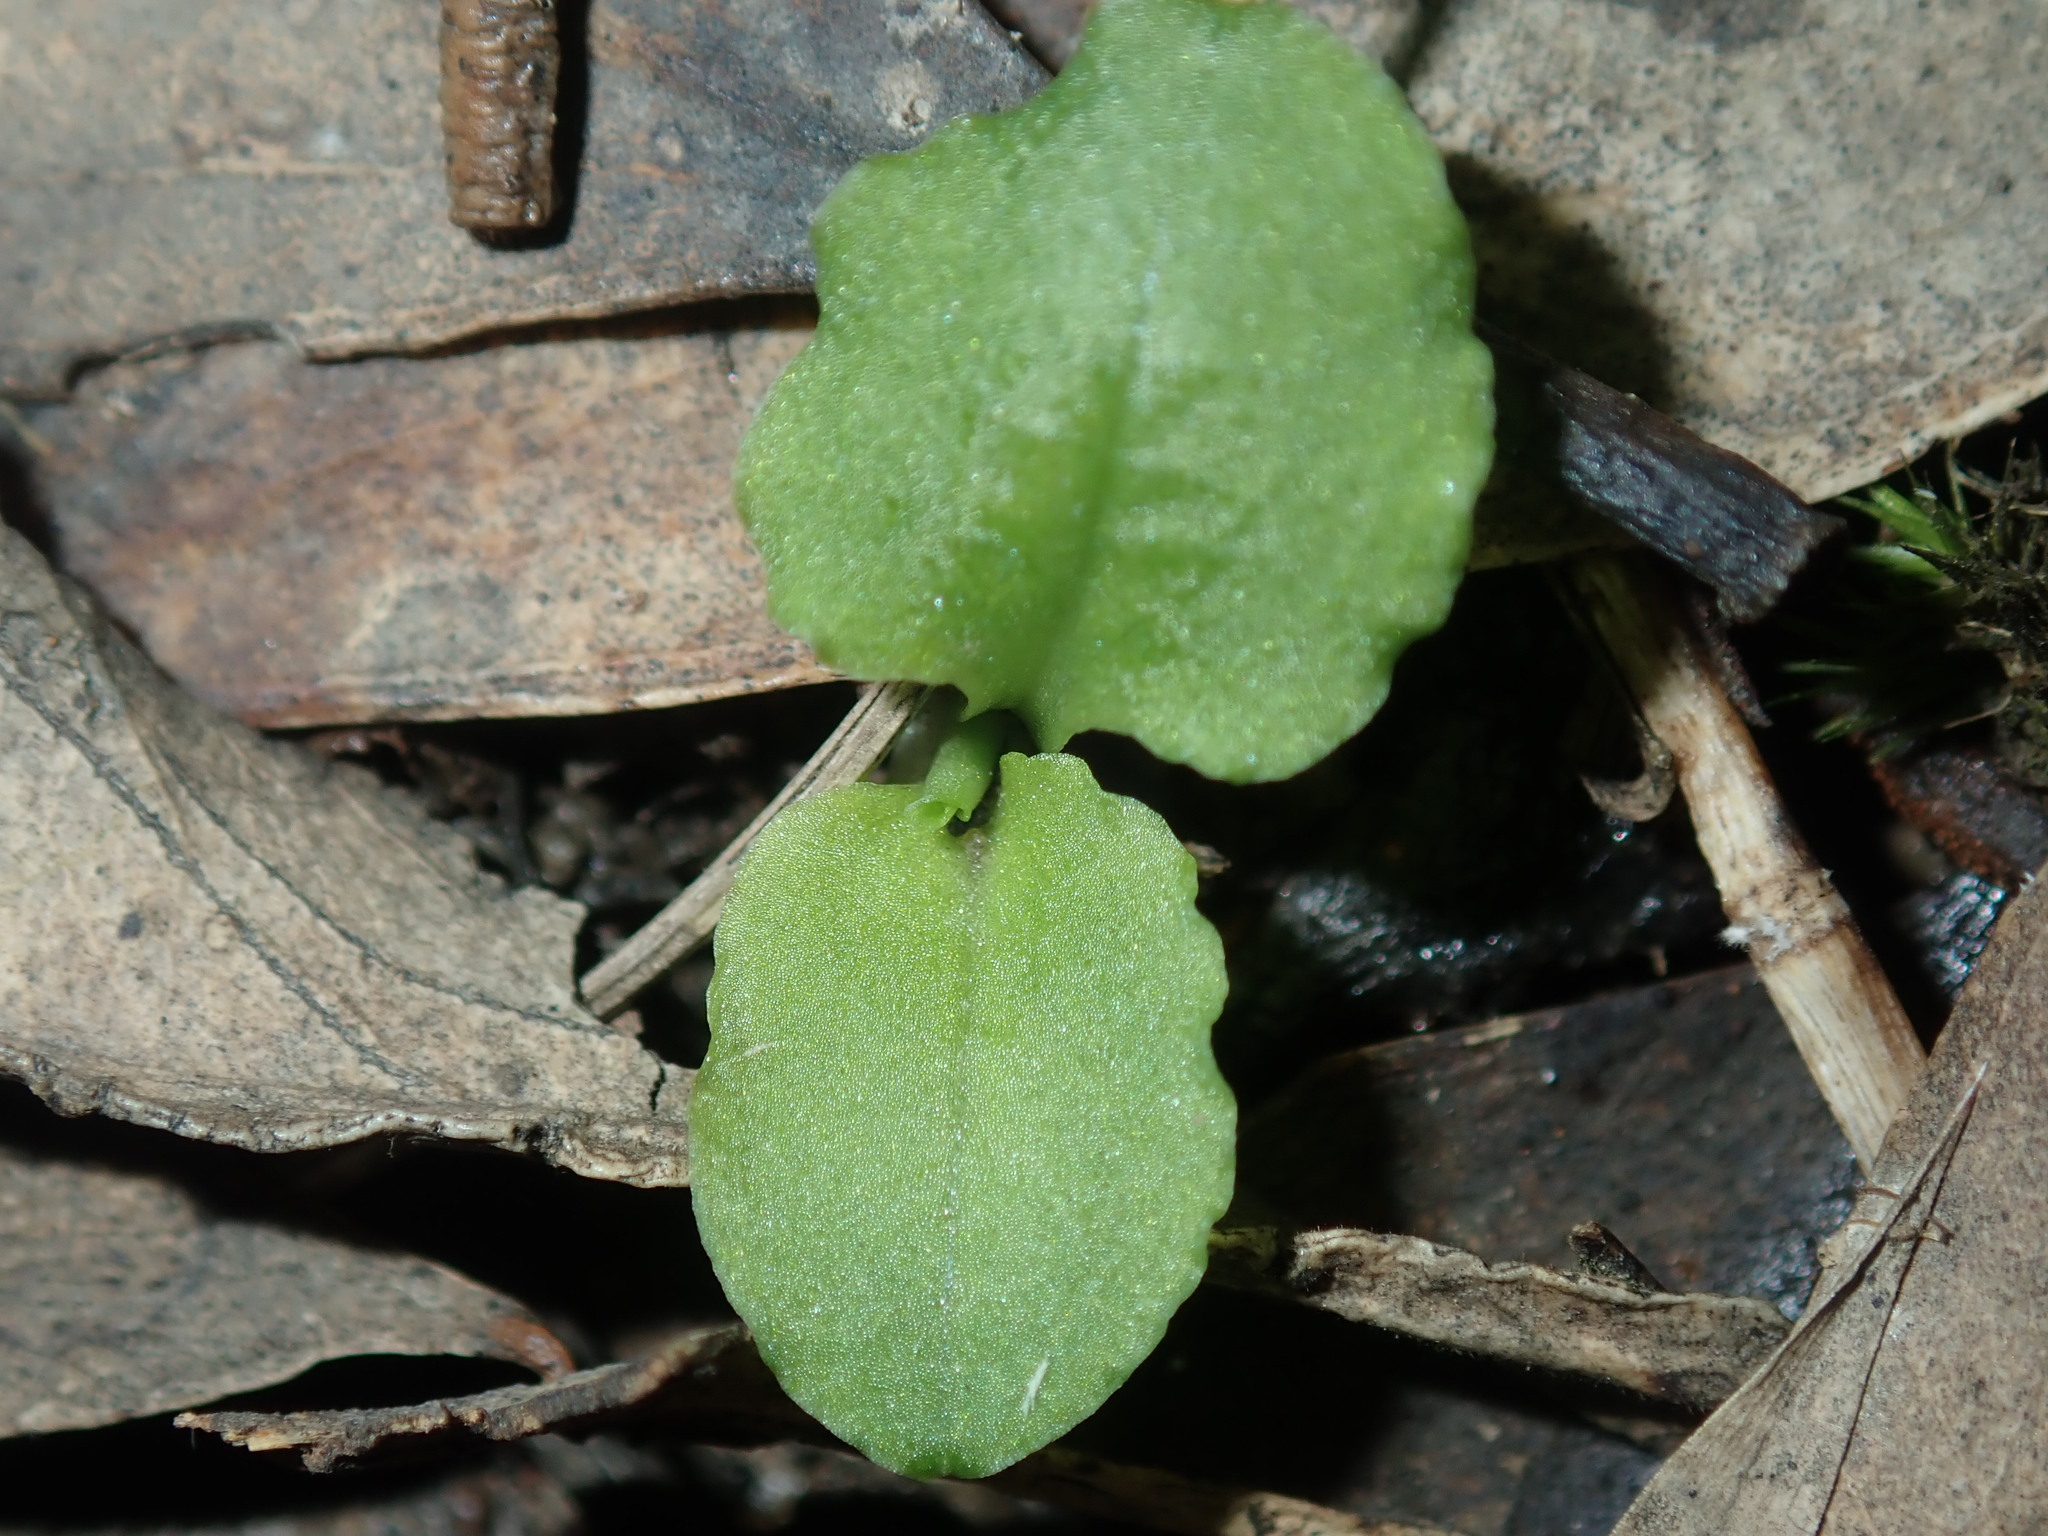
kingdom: Plantae
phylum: Tracheophyta
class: Liliopsida
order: Asparagales
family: Orchidaceae
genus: Pterostylis
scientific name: Pterostylis oblonga
